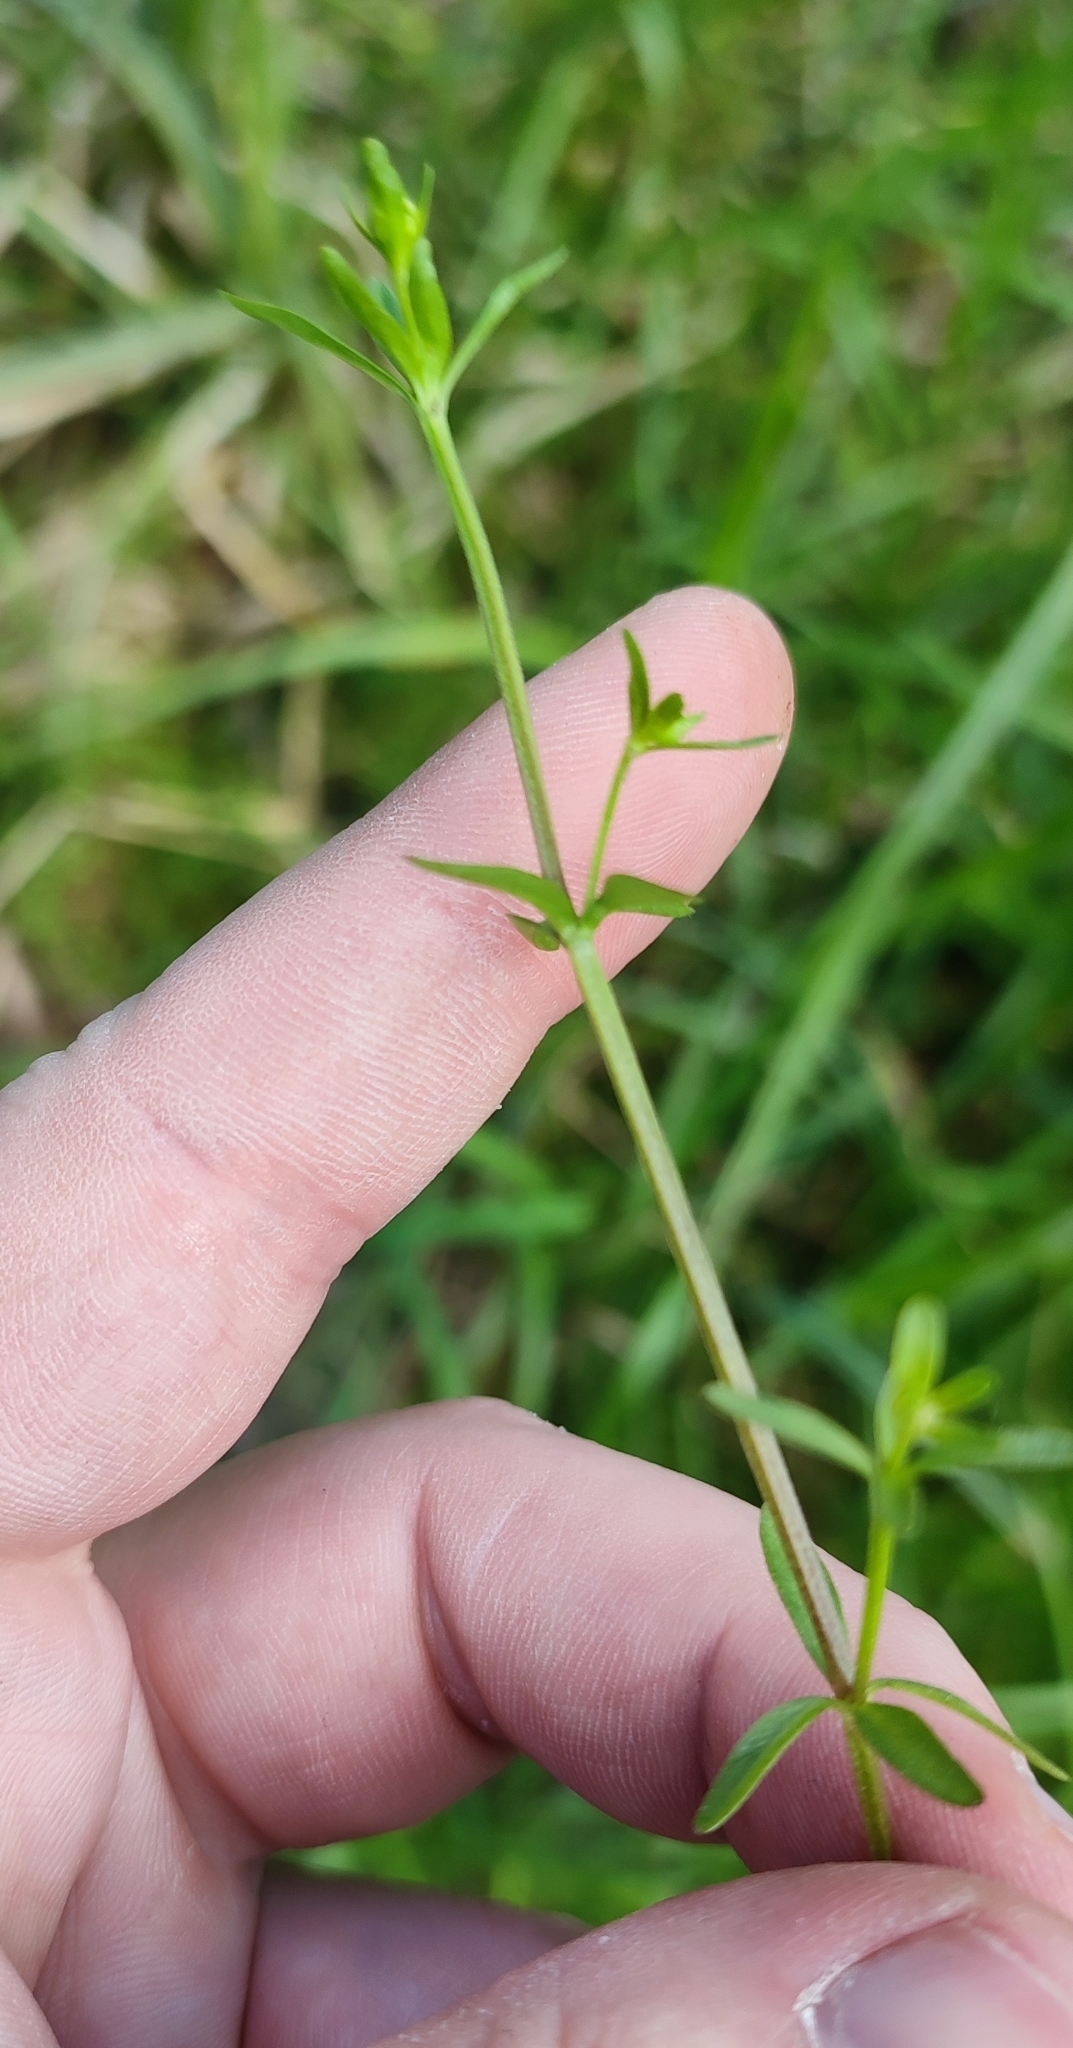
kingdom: Plantae
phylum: Tracheophyta
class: Magnoliopsida
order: Gentianales
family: Rubiaceae
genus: Galium
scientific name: Galium palustre
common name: Common marsh-bedstraw
